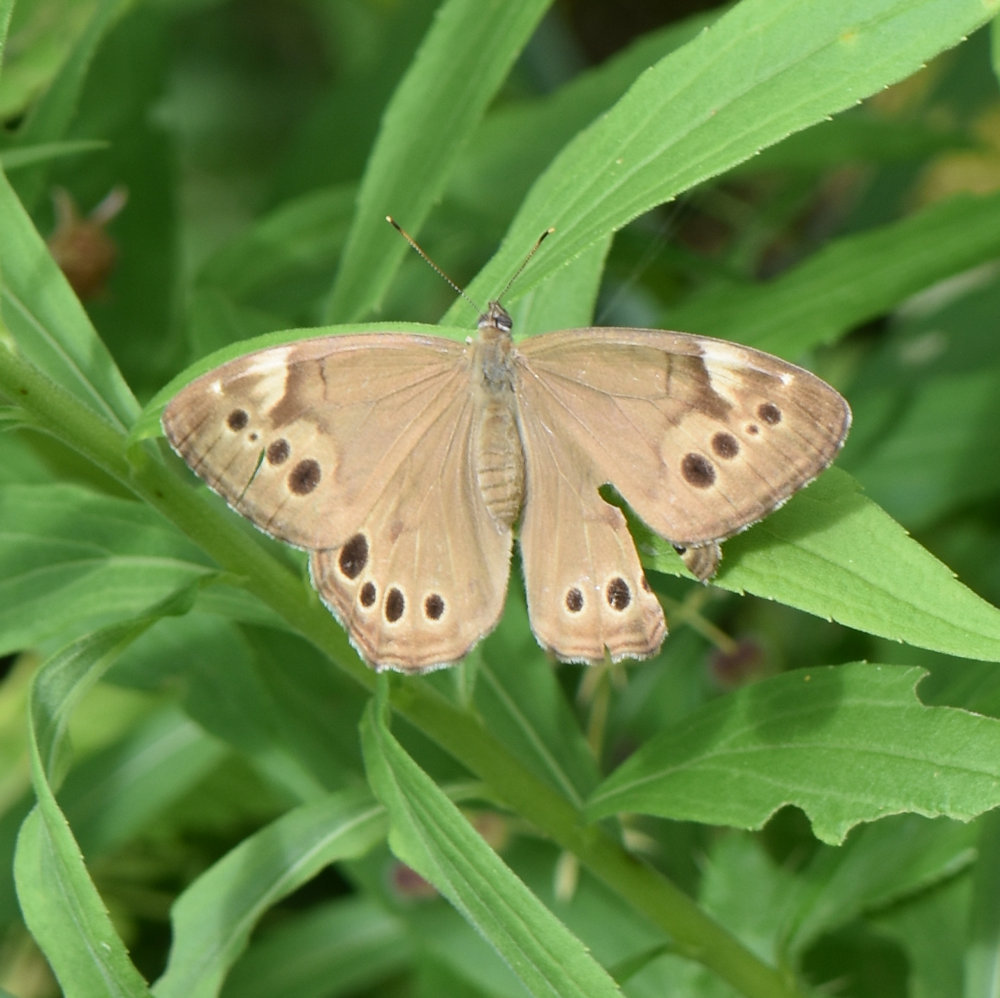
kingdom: Animalia
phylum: Arthropoda
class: Insecta
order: Lepidoptera
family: Nymphalidae
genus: Lethe
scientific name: Lethe anthedon
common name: Northern pearly-eye
